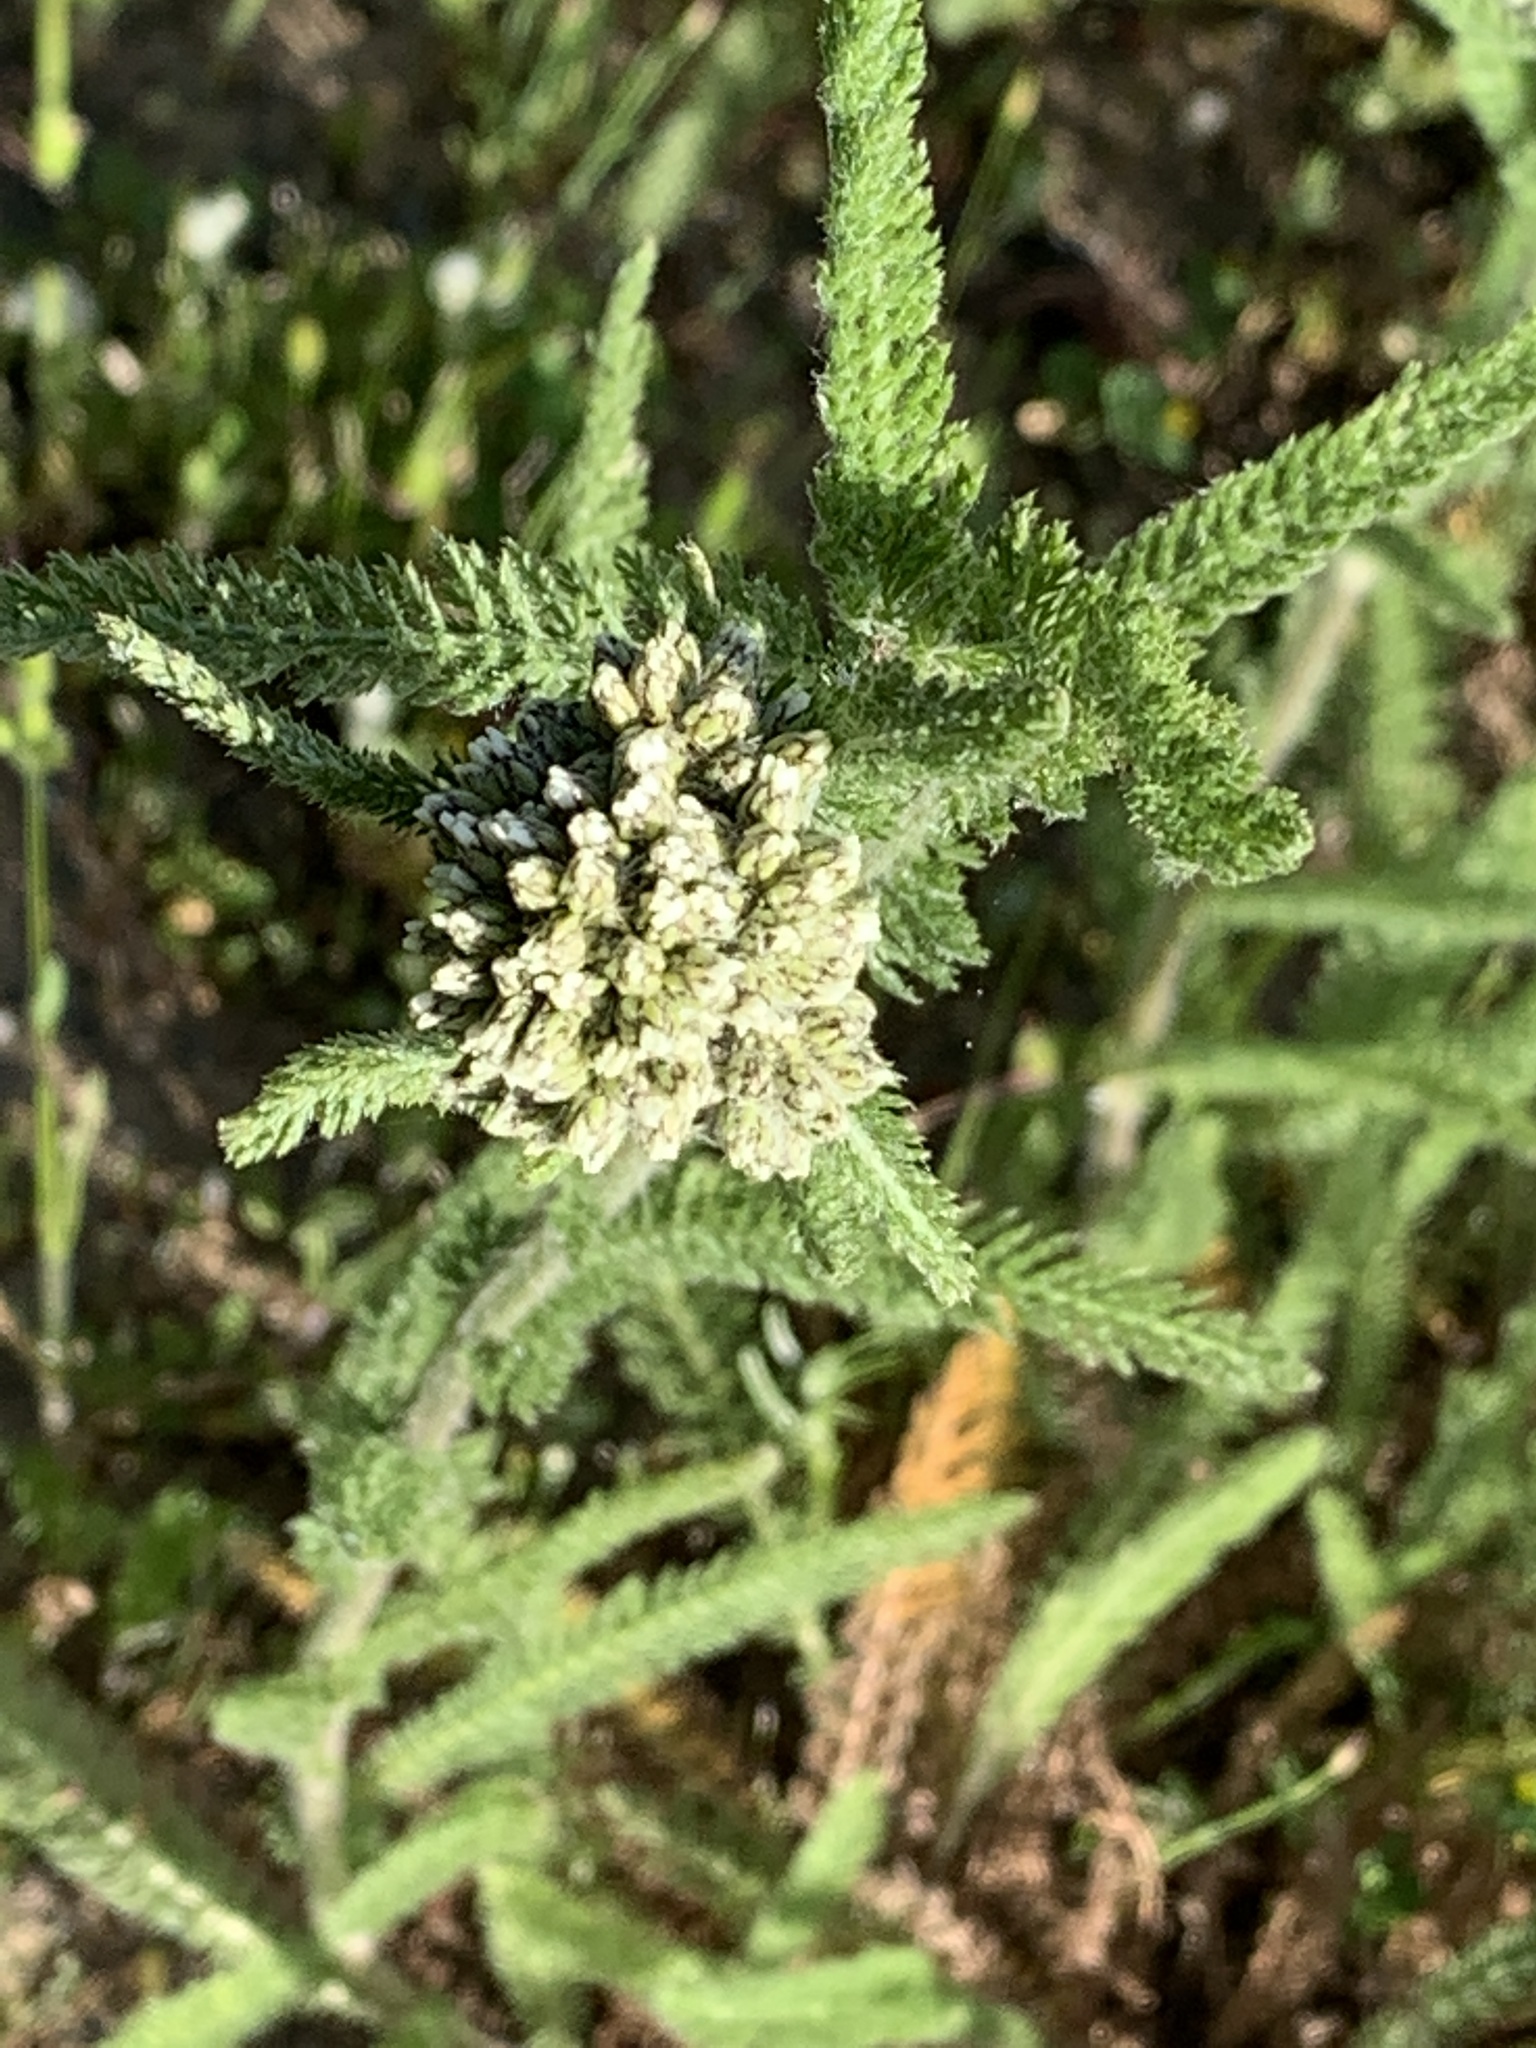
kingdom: Plantae
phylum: Tracheophyta
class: Magnoliopsida
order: Asterales
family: Asteraceae
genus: Achillea
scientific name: Achillea millefolium
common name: Yarrow
